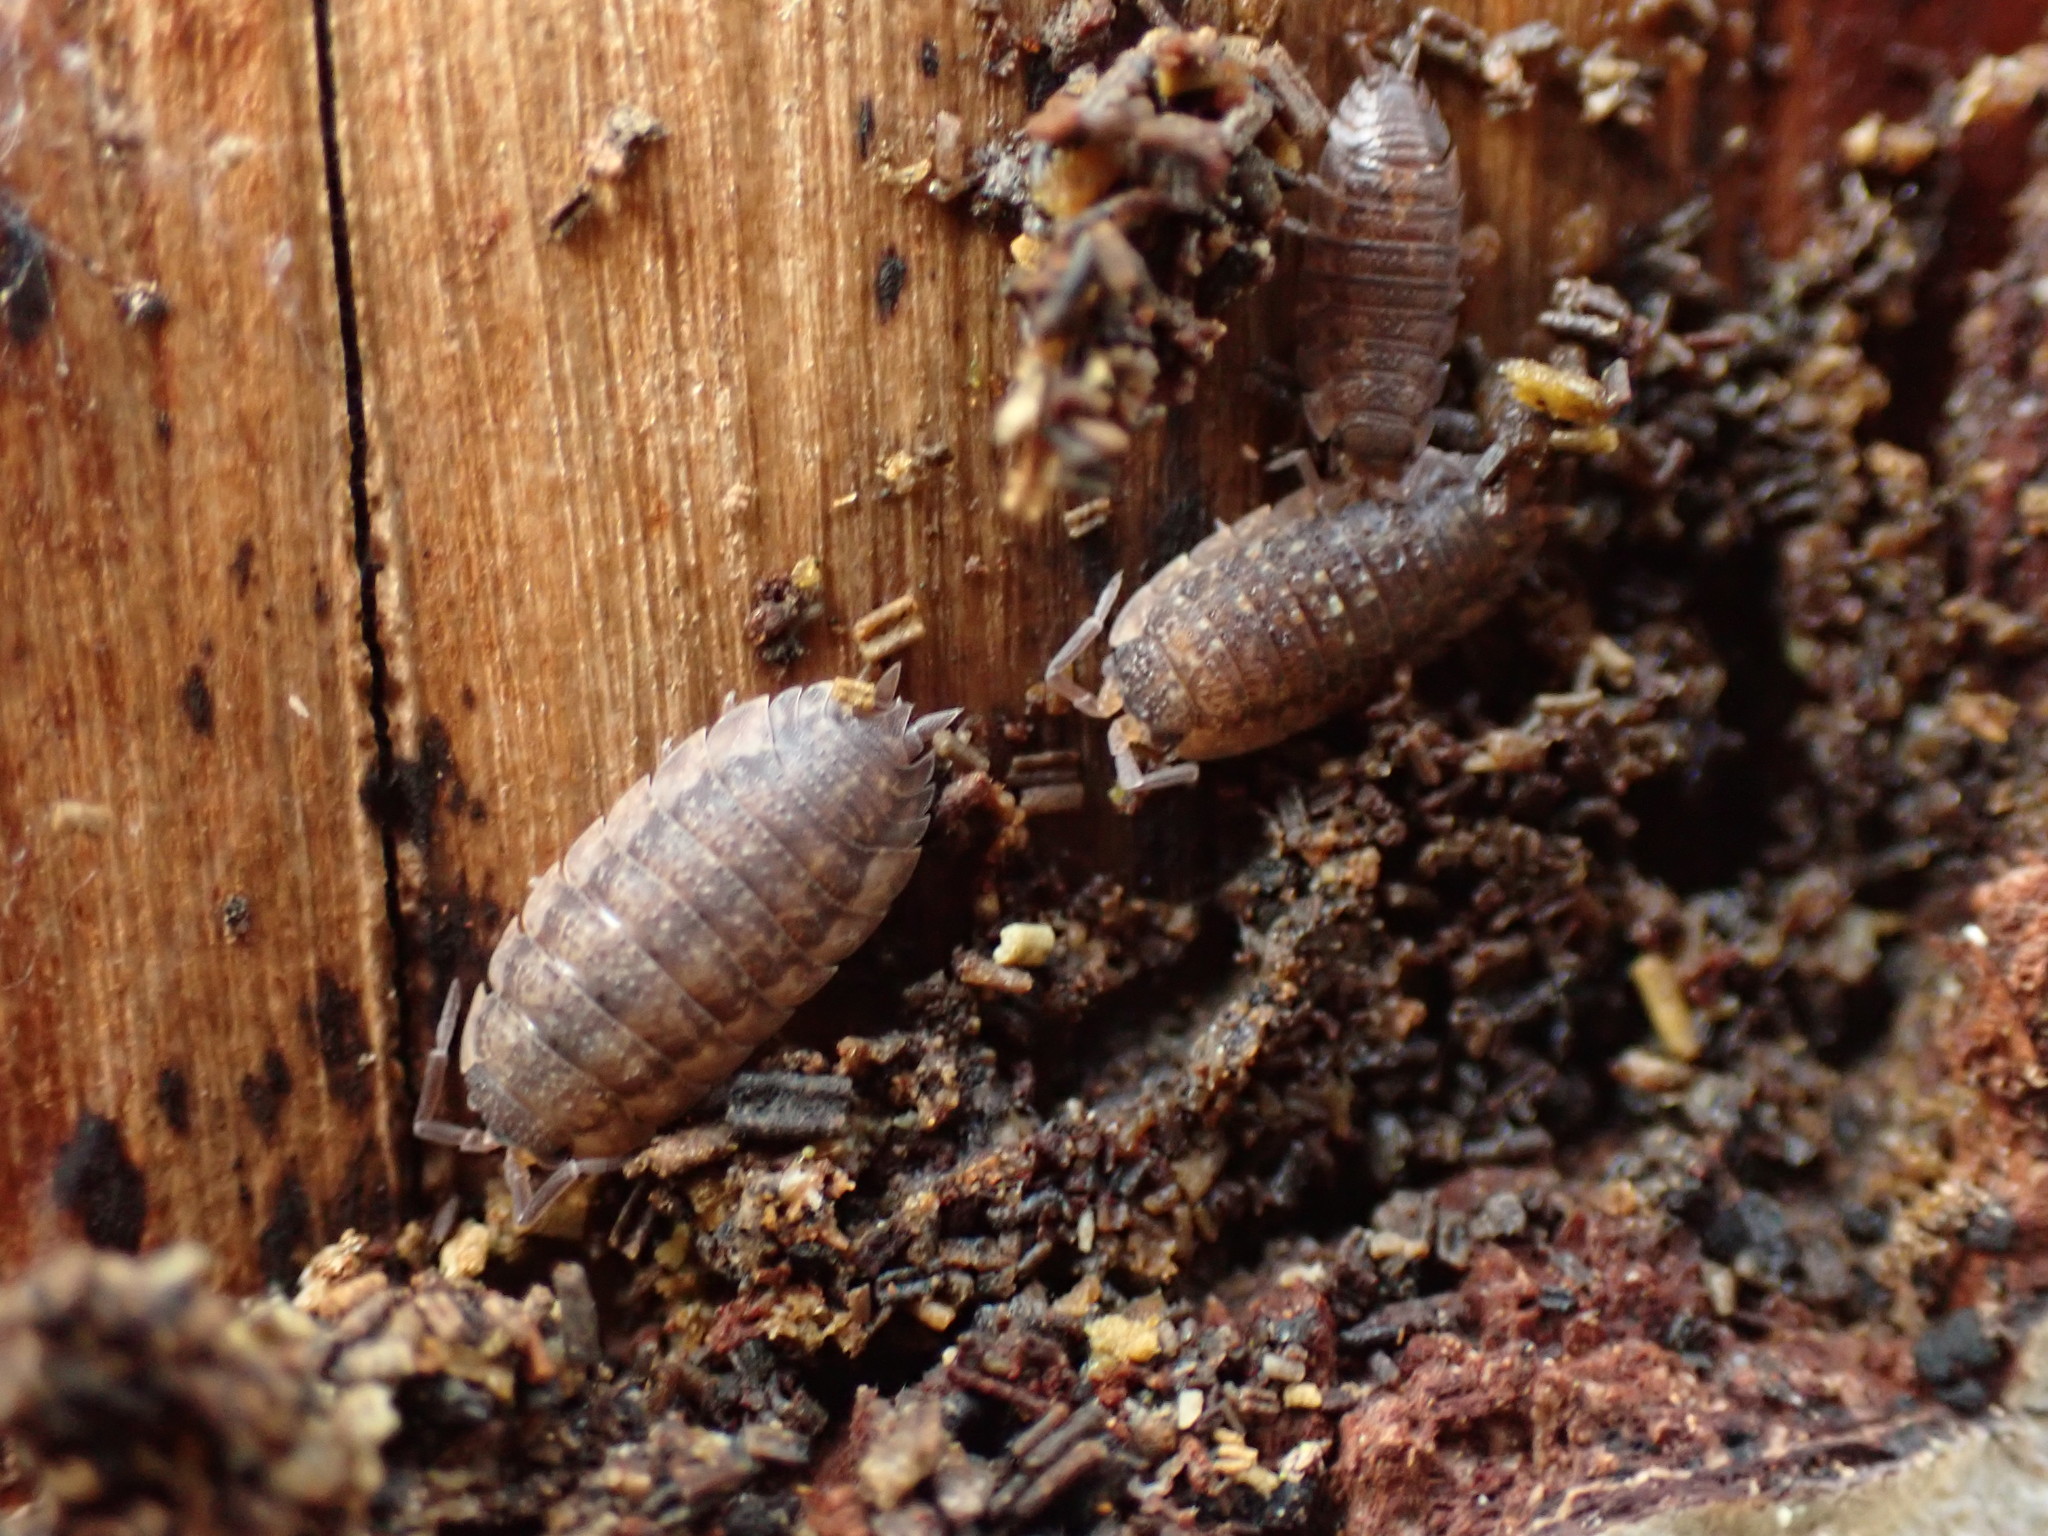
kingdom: Animalia
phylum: Arthropoda
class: Malacostraca
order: Isopoda
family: Porcellionidae
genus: Porcellio
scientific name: Porcellio scaber
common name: Common rough woodlouse
